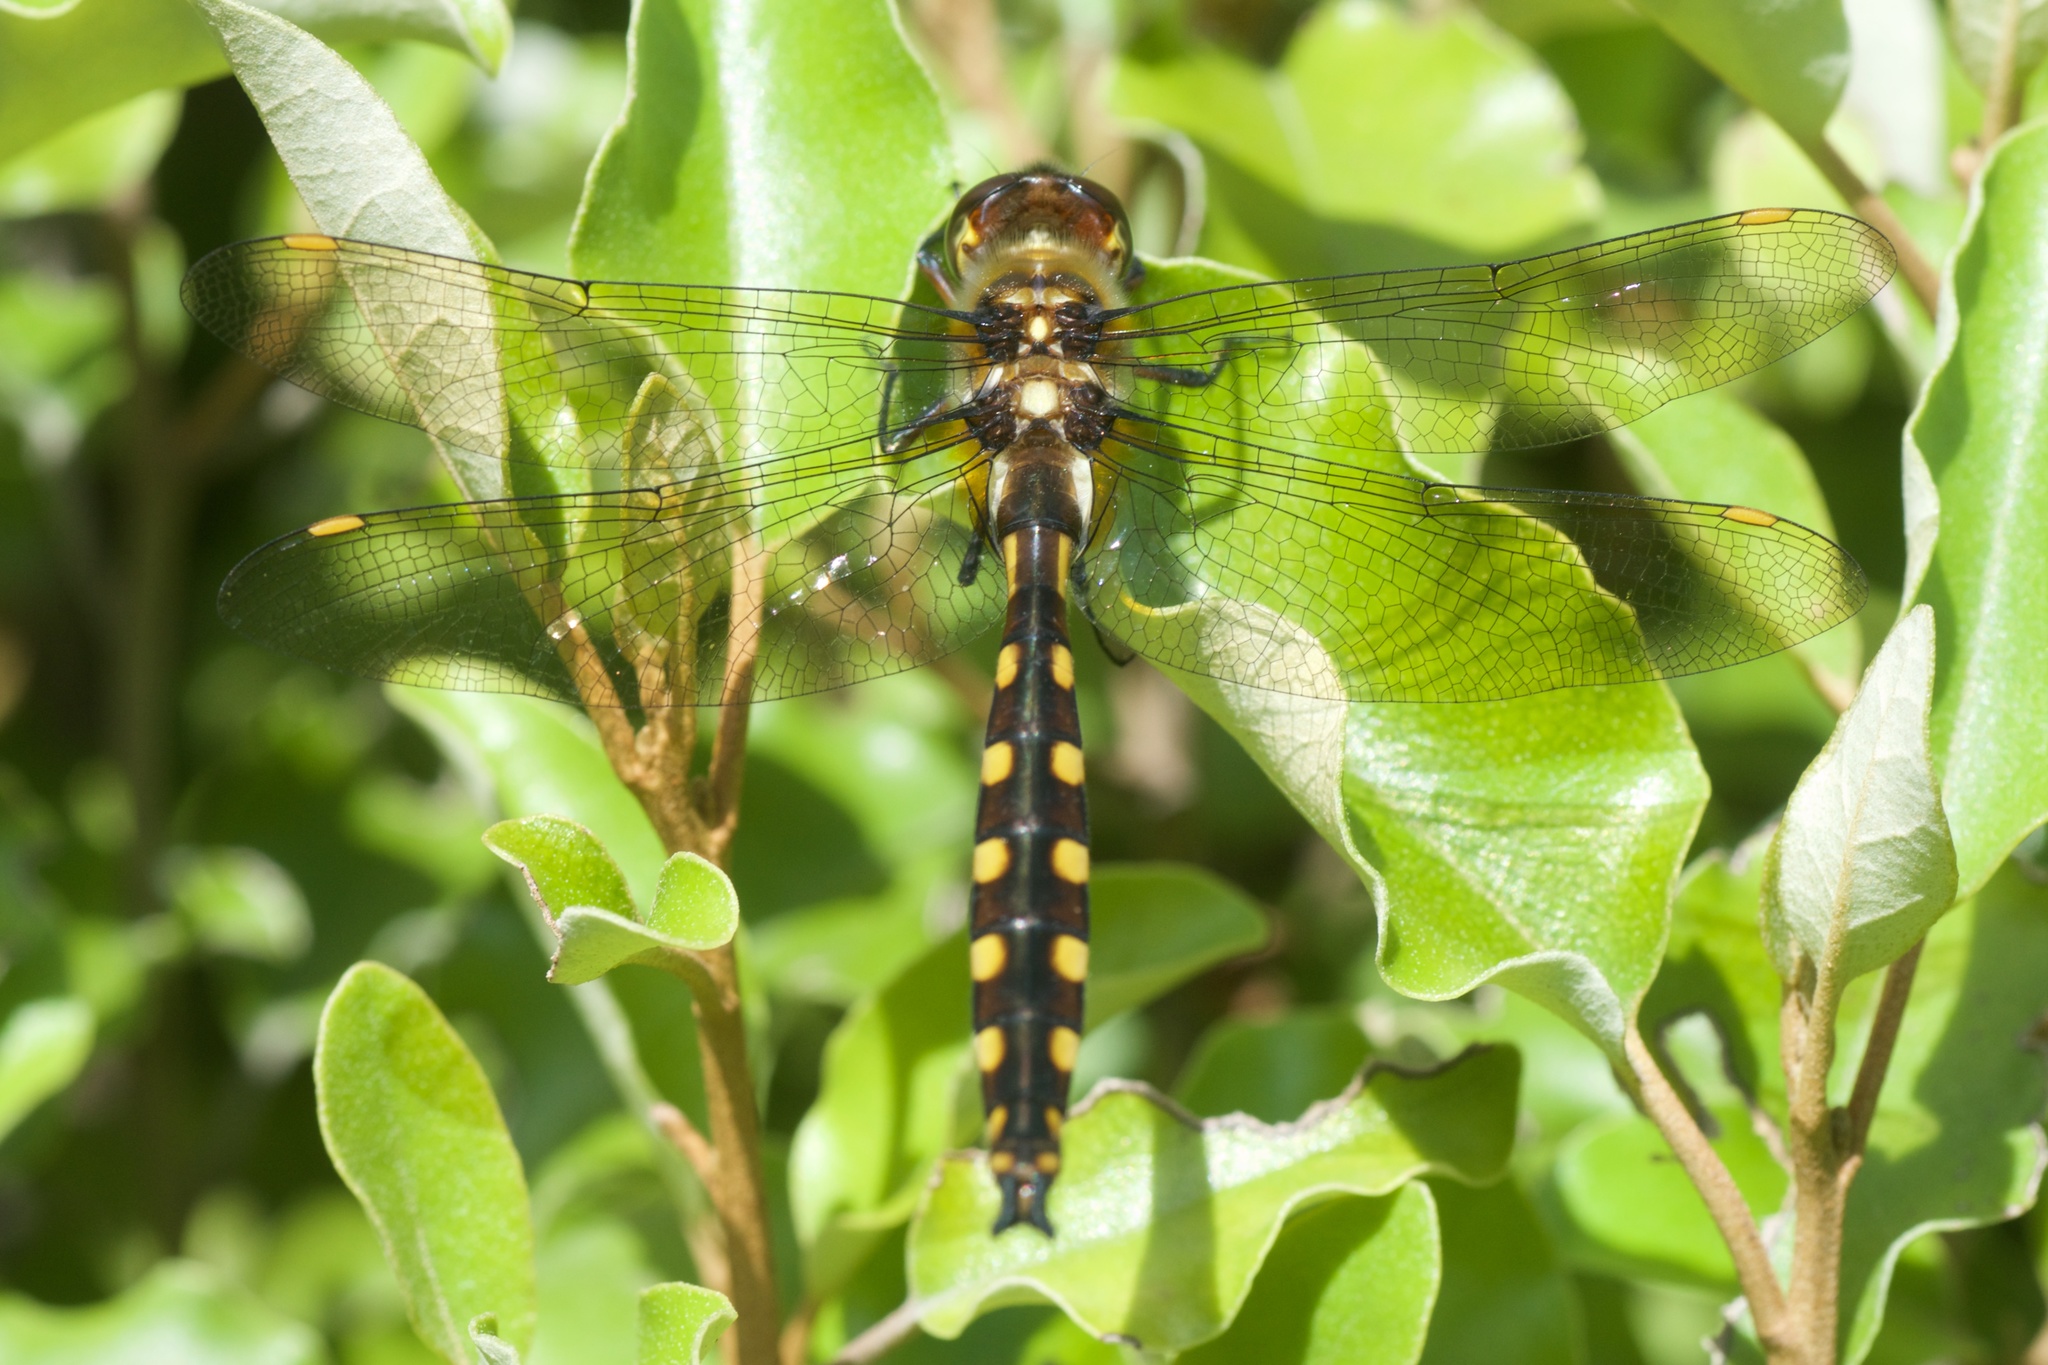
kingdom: Animalia
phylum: Arthropoda
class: Insecta
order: Odonata
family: Corduliidae
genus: Procordulia
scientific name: Procordulia grayi
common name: Yellow spotted dragonfly
